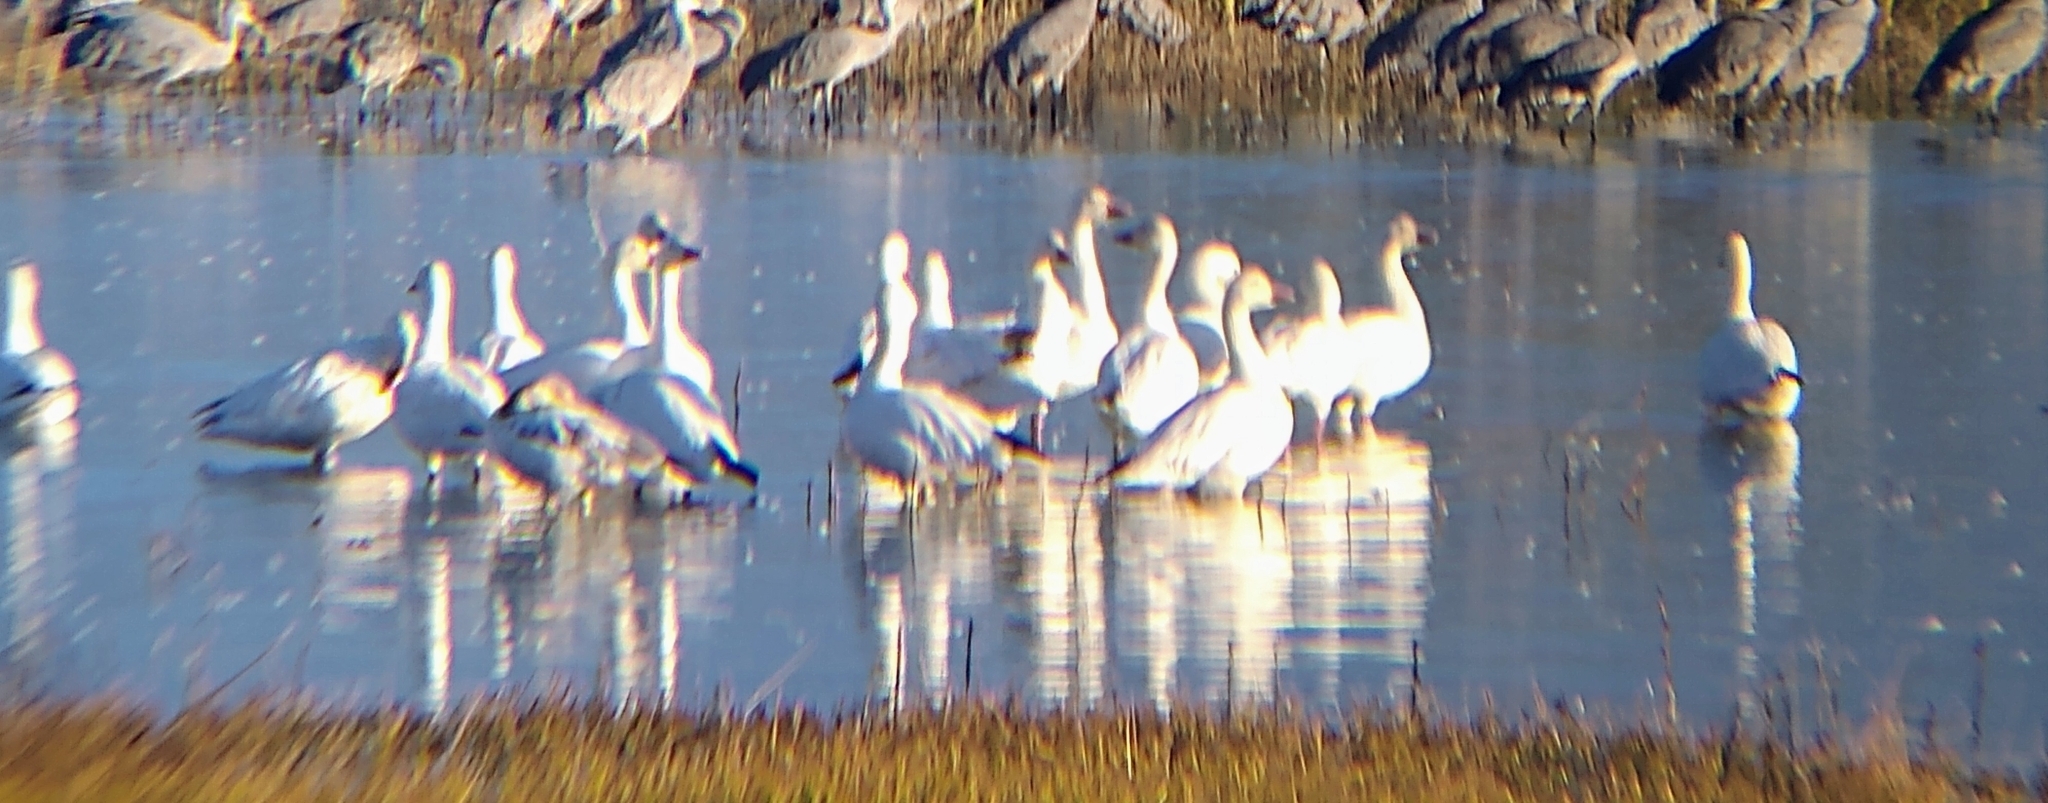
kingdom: Animalia
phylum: Chordata
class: Aves
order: Anseriformes
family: Anatidae
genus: Anser
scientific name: Anser caerulescens
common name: Snow goose
